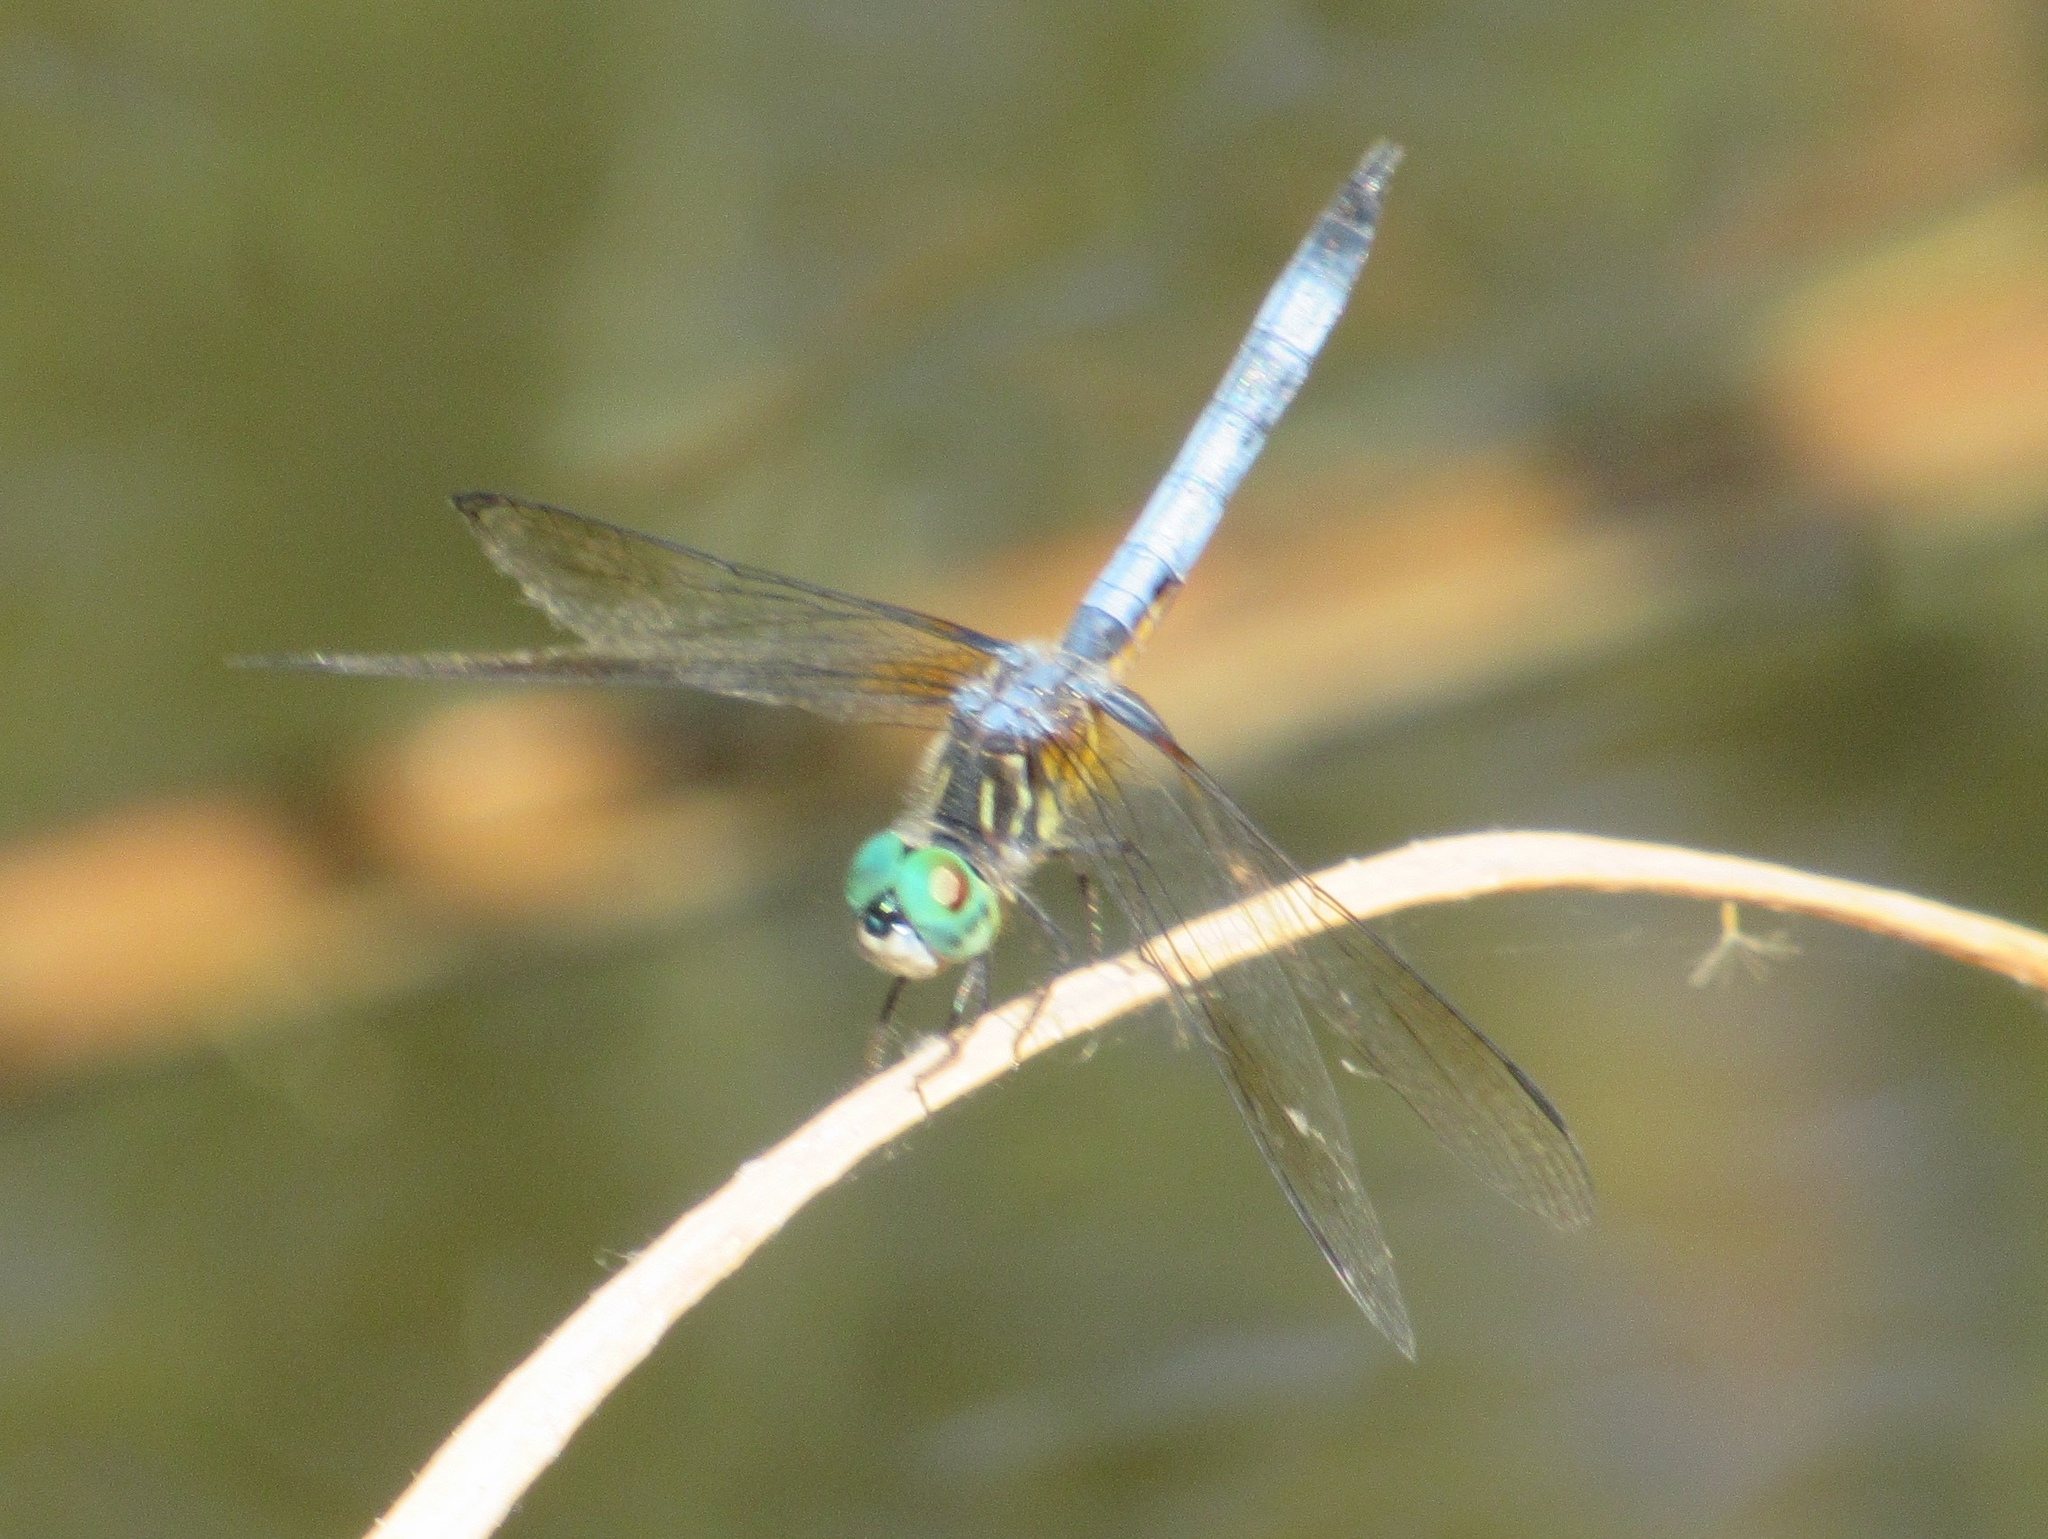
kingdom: Animalia
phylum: Arthropoda
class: Insecta
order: Odonata
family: Libellulidae
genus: Pachydiplax
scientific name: Pachydiplax longipennis
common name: Blue dasher
